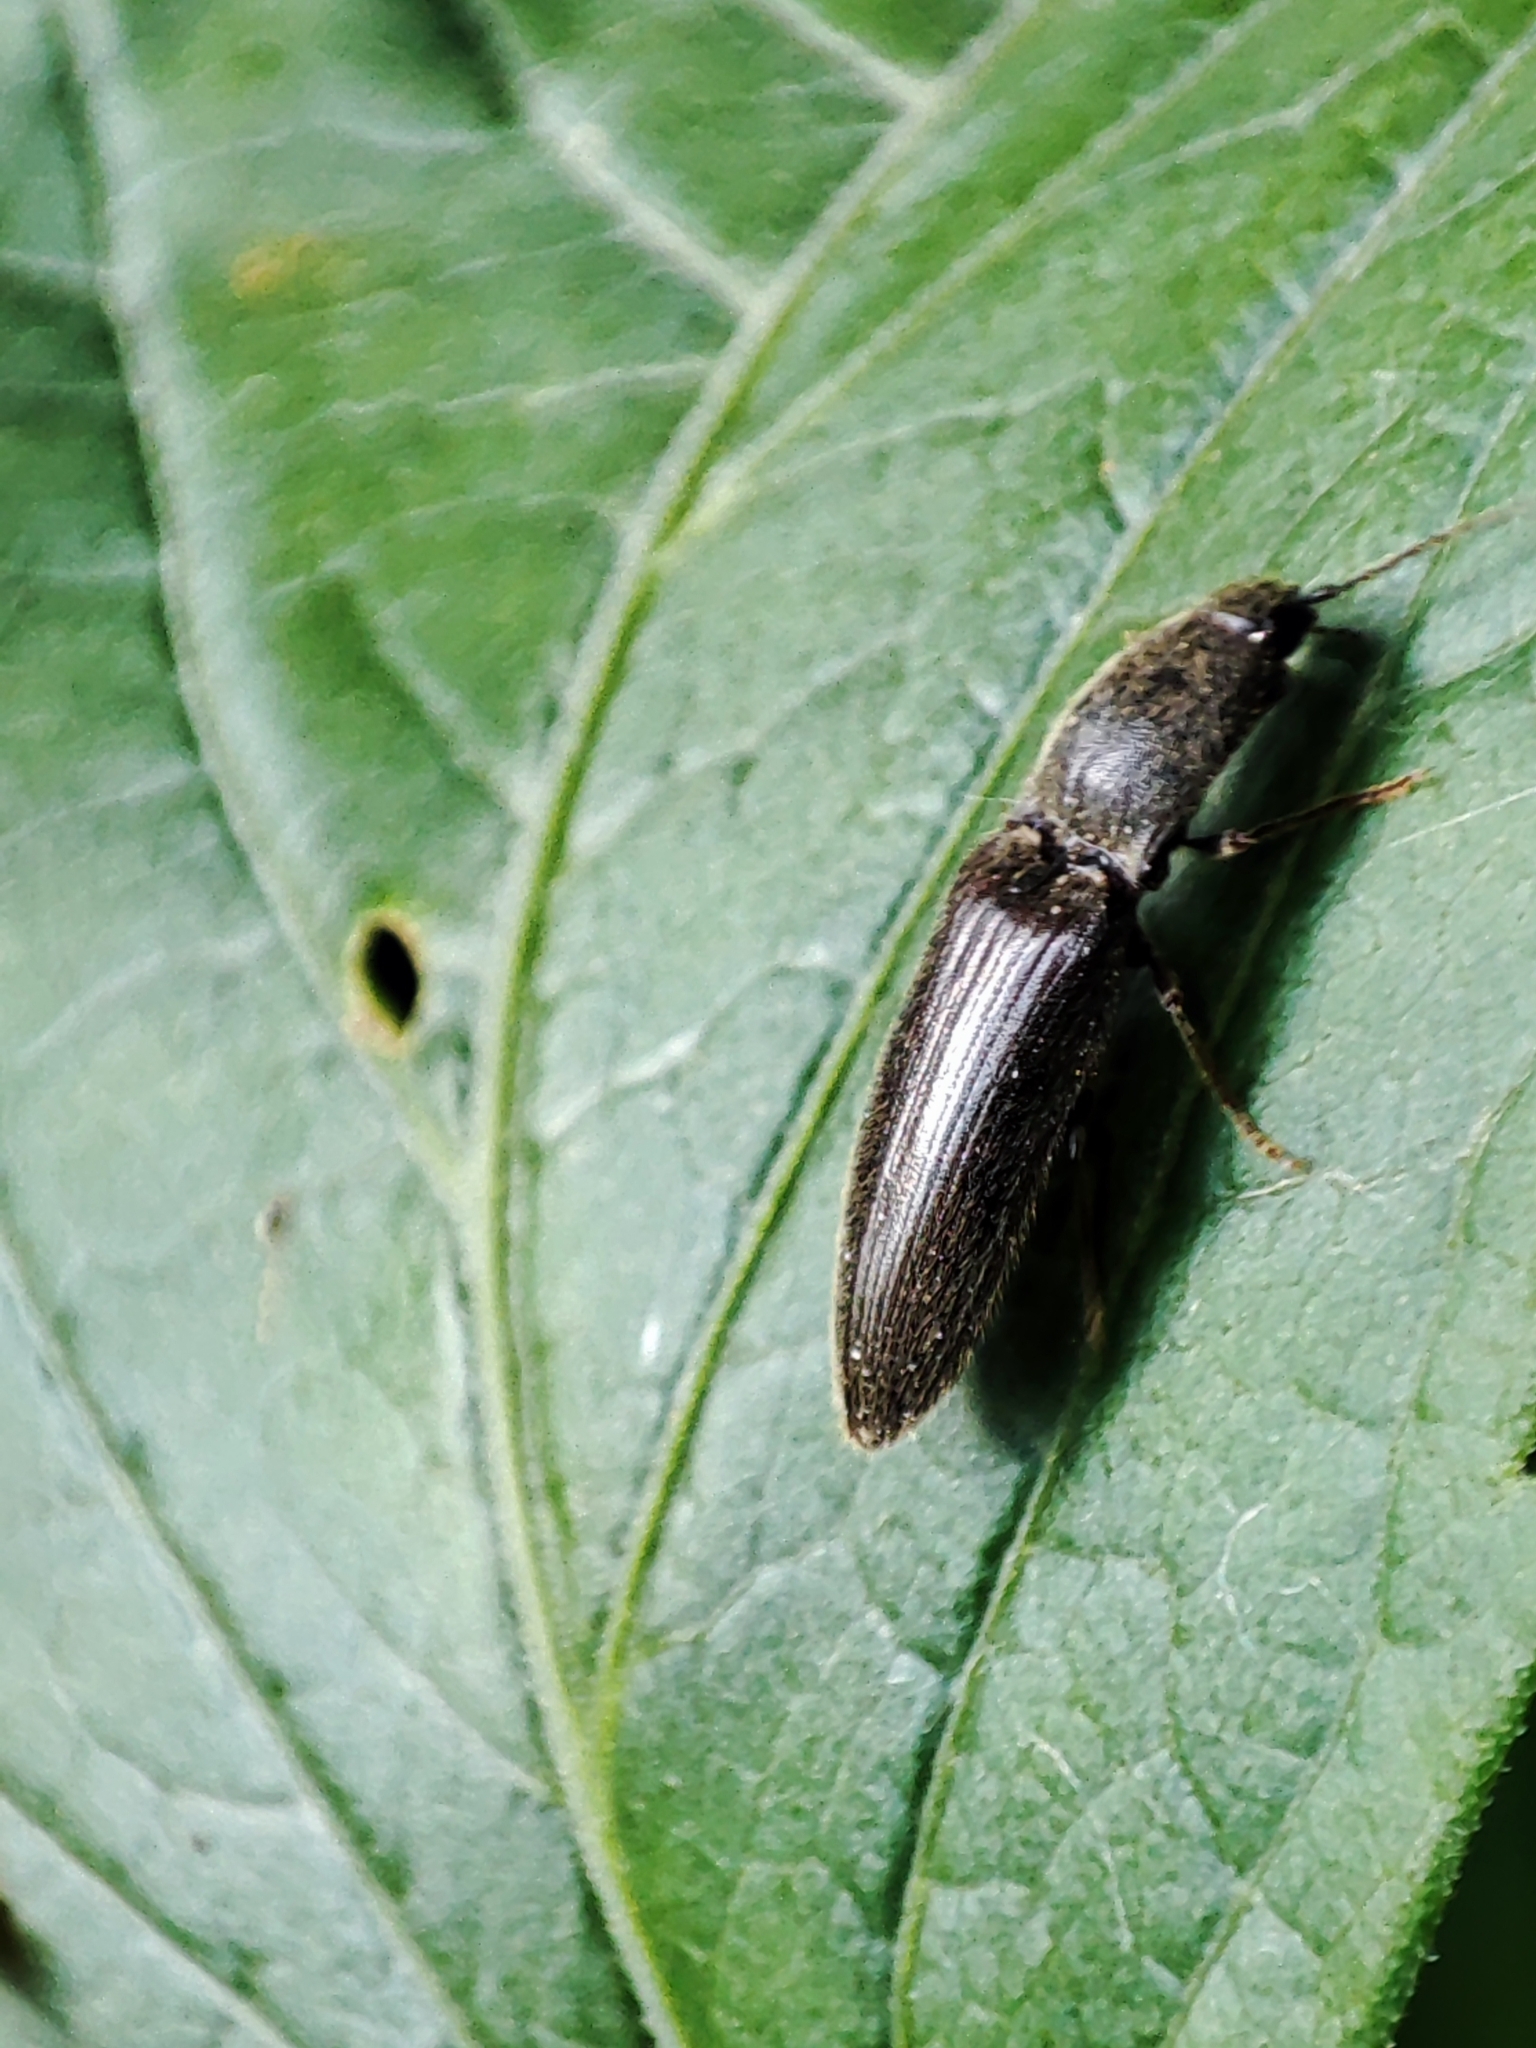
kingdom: Animalia
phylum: Arthropoda
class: Insecta
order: Coleoptera
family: Elateridae
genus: Athous
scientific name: Athous haemorrhoidalis
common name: Red-brown click beetle
